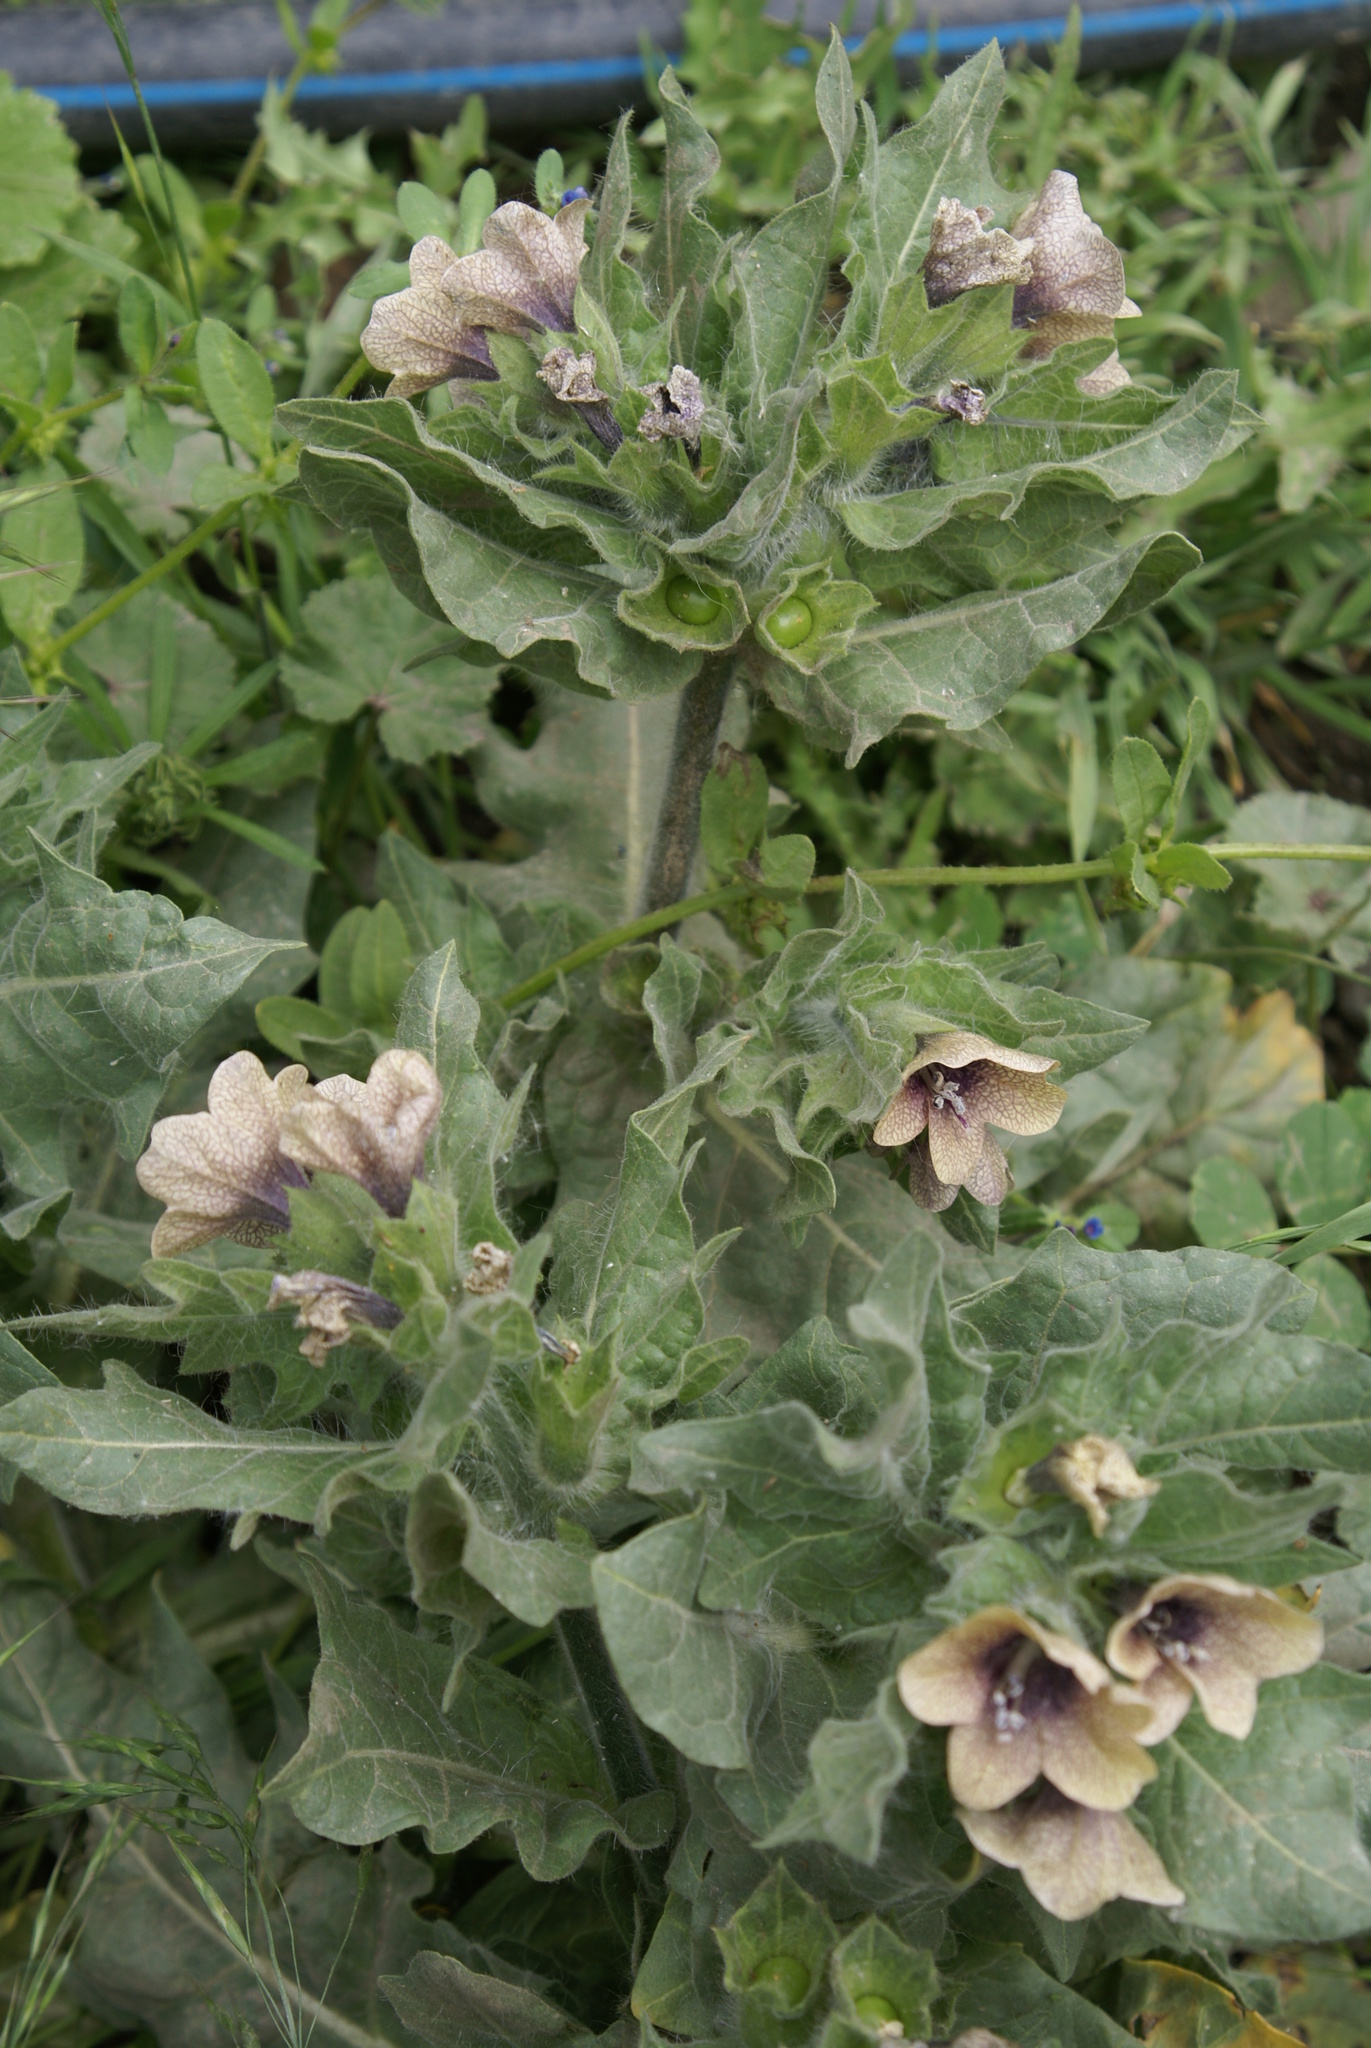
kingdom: Plantae
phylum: Tracheophyta
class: Magnoliopsida
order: Solanales
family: Solanaceae
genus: Hyoscyamus
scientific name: Hyoscyamus niger
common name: Henbane
